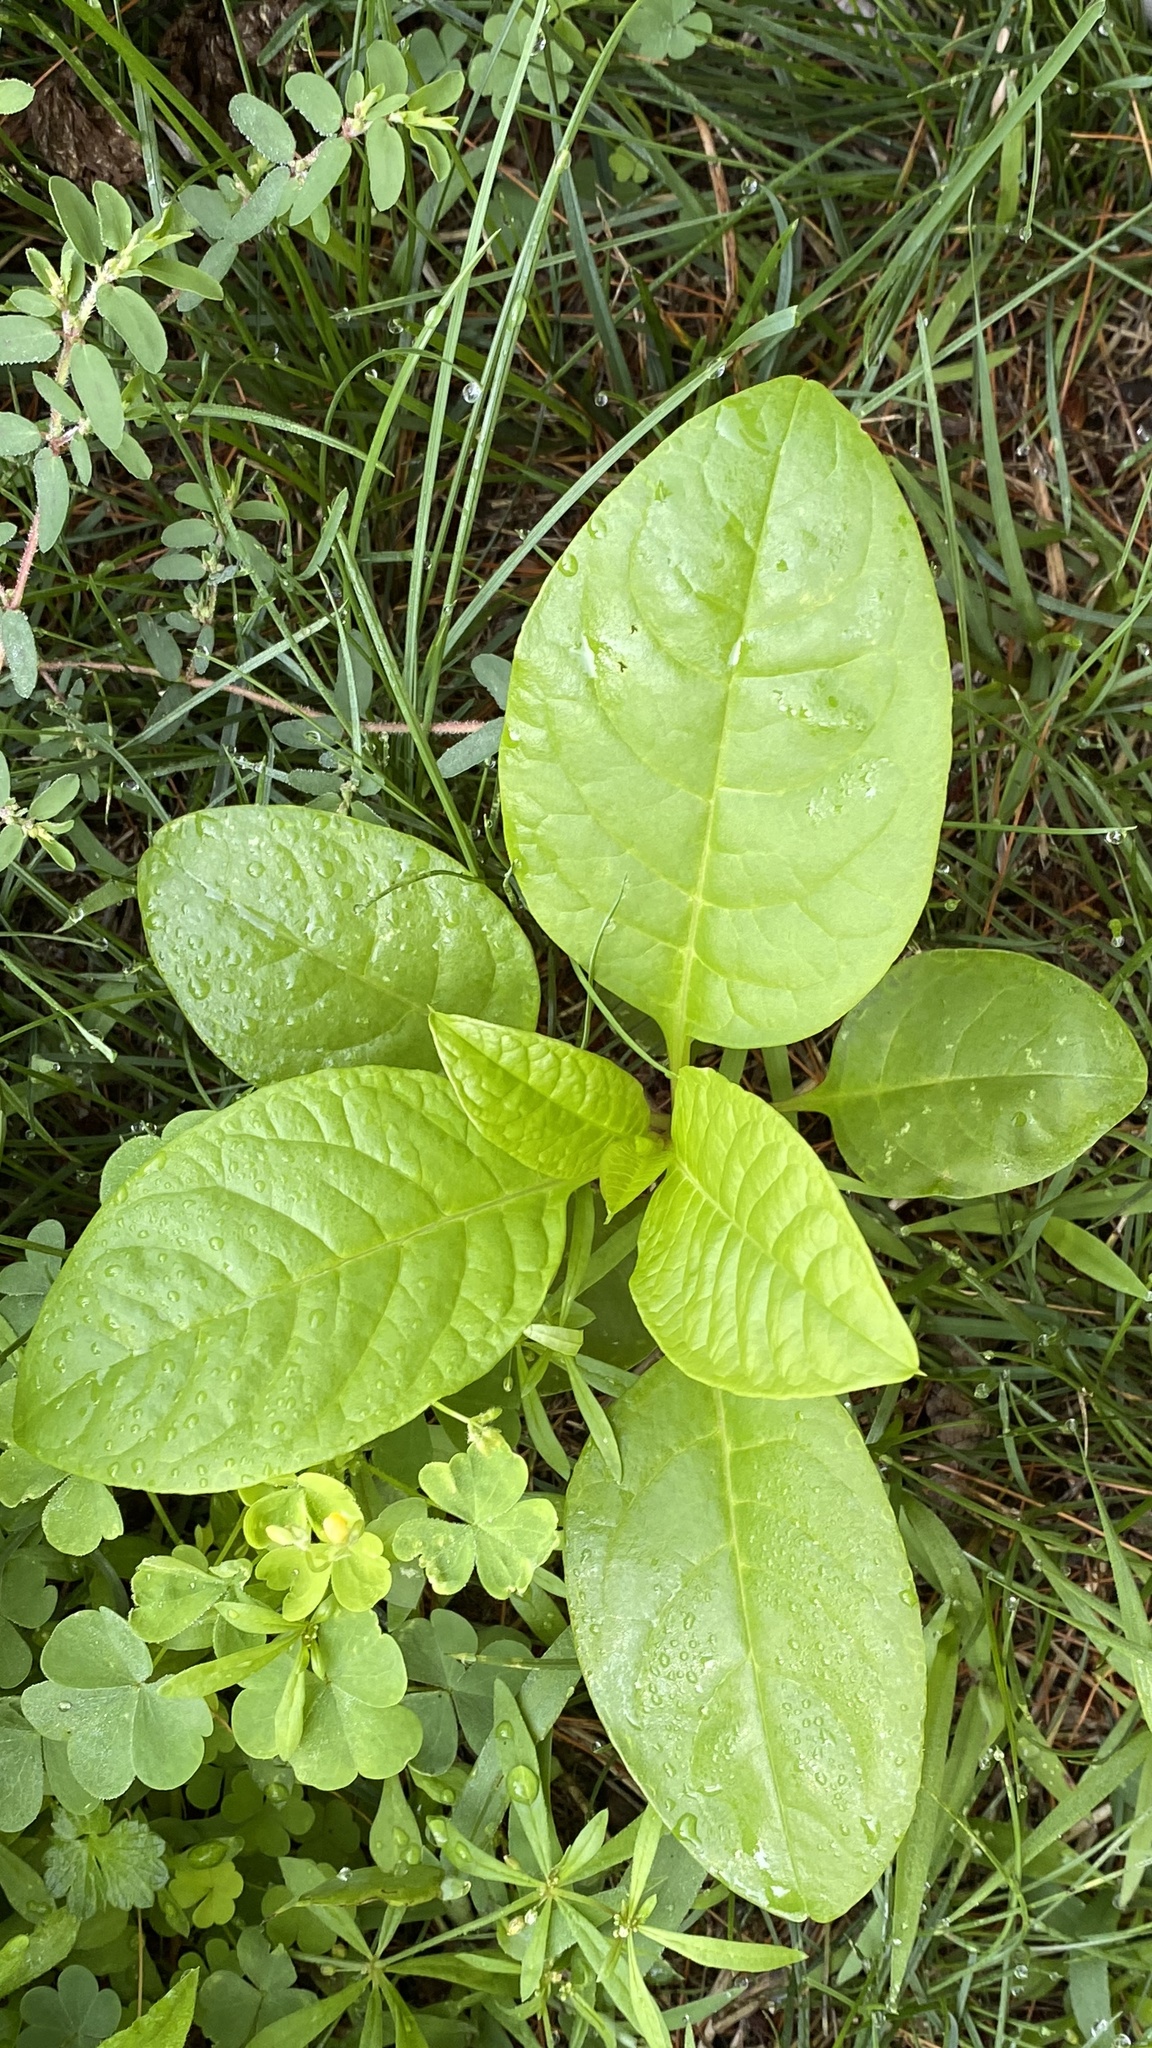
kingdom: Plantae
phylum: Tracheophyta
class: Magnoliopsida
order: Caryophyllales
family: Phytolaccaceae
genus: Phytolacca
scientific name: Phytolacca americana
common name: American pokeweed
